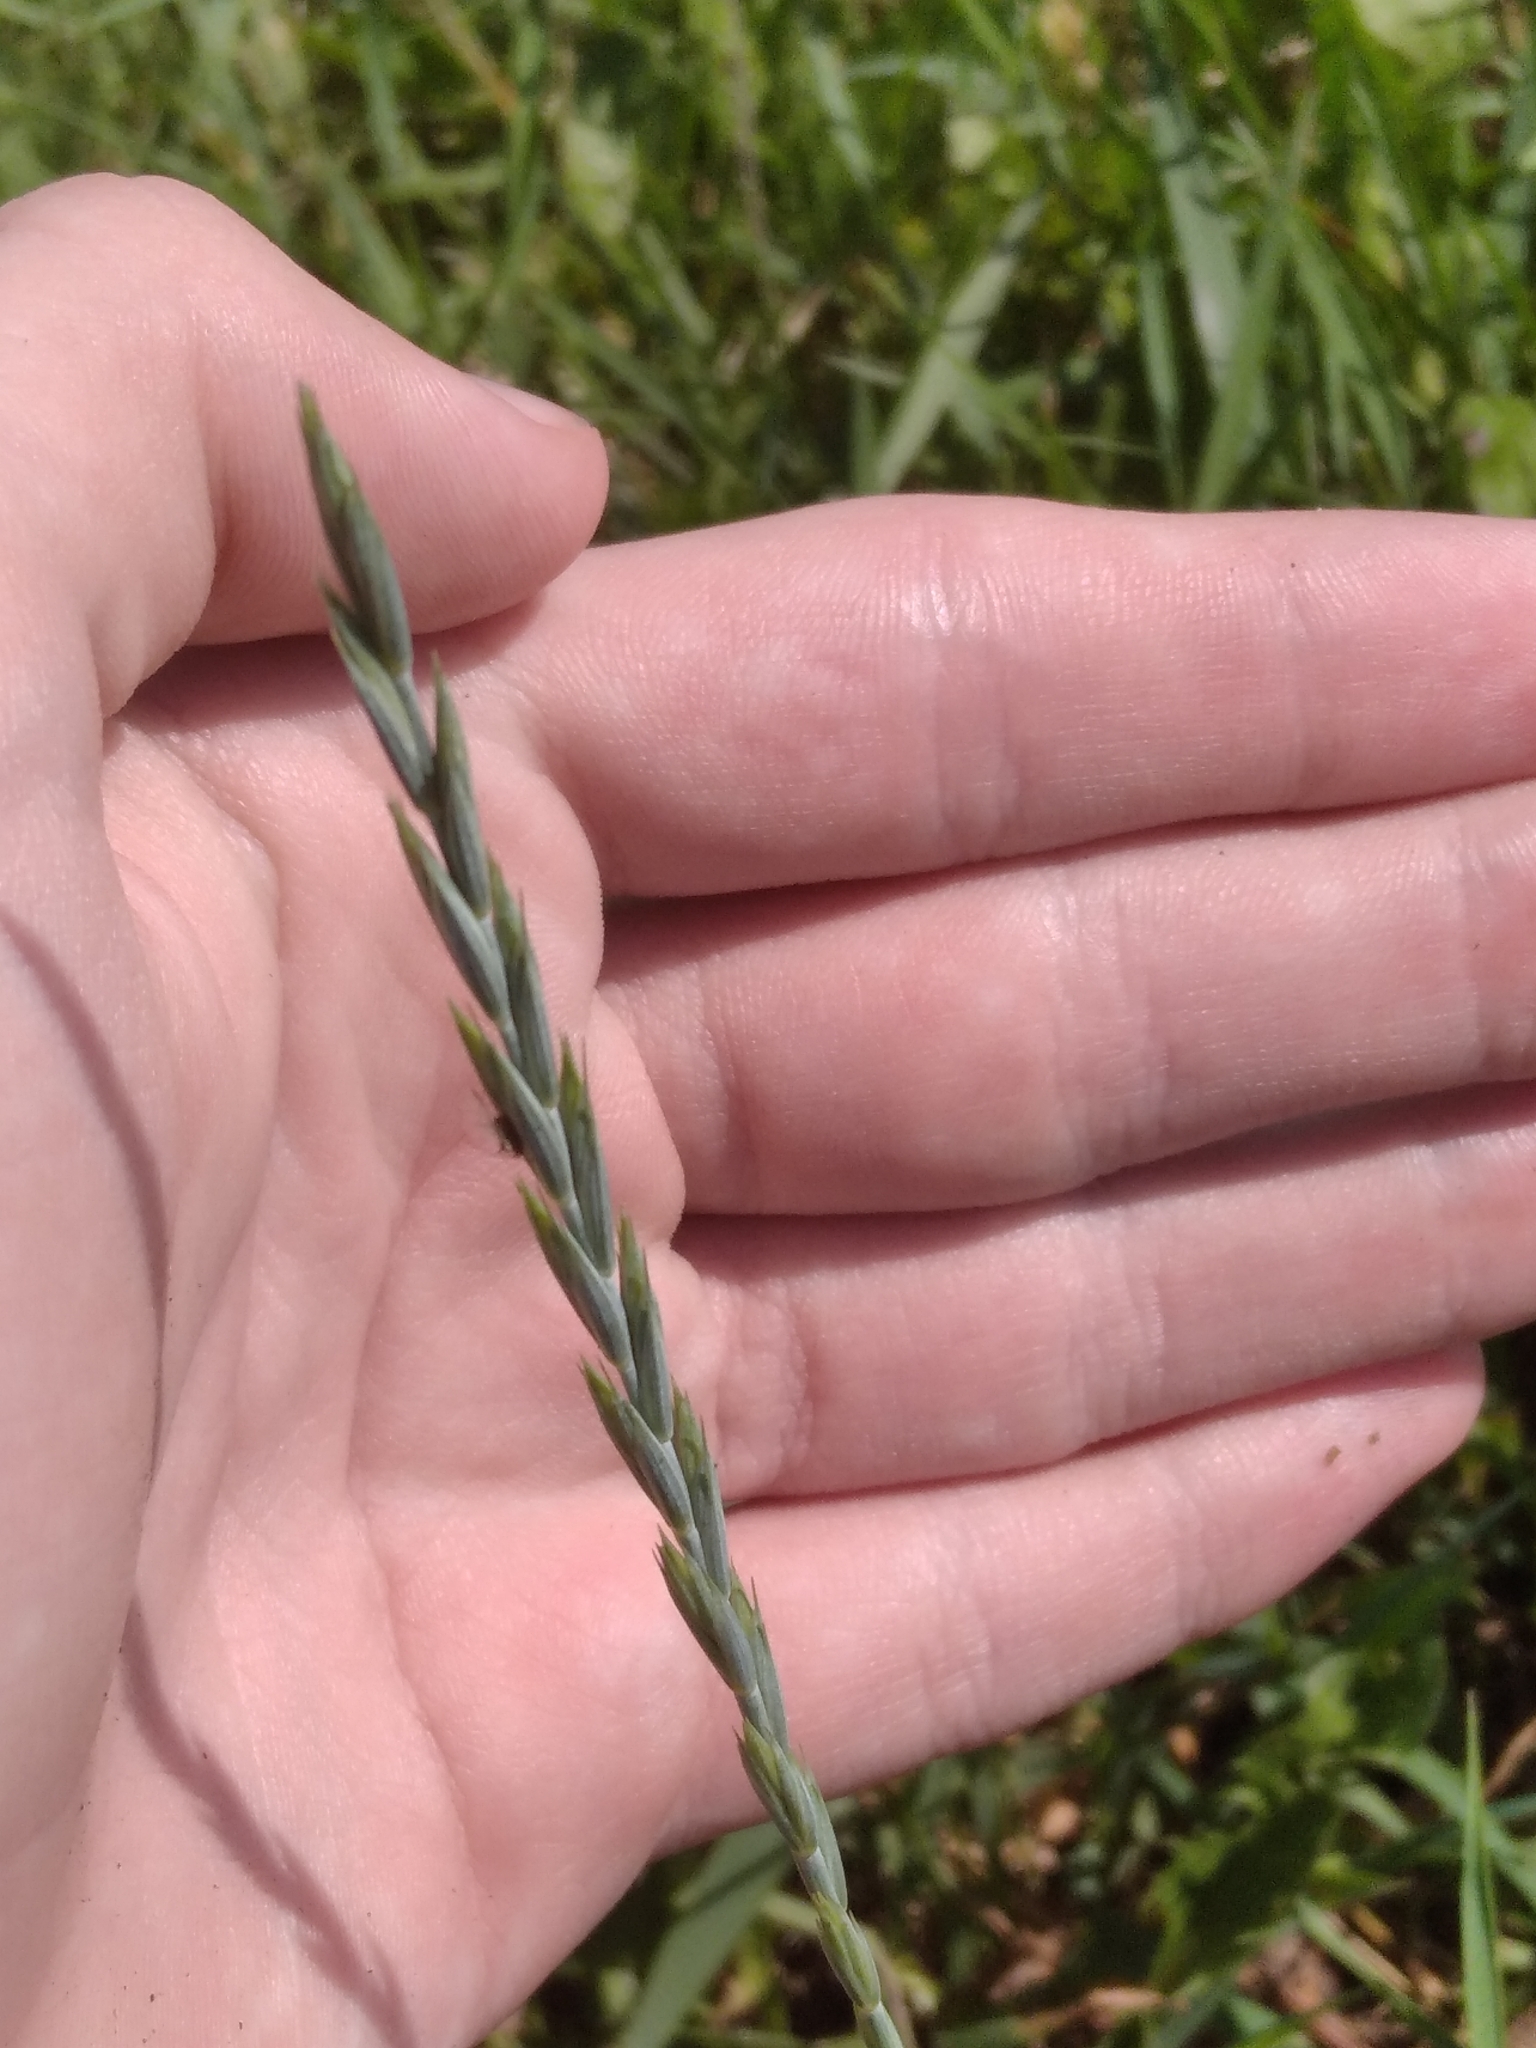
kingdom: Plantae
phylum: Tracheophyta
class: Liliopsida
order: Poales
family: Poaceae
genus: Elymus
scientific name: Elymus repens
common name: Quackgrass
